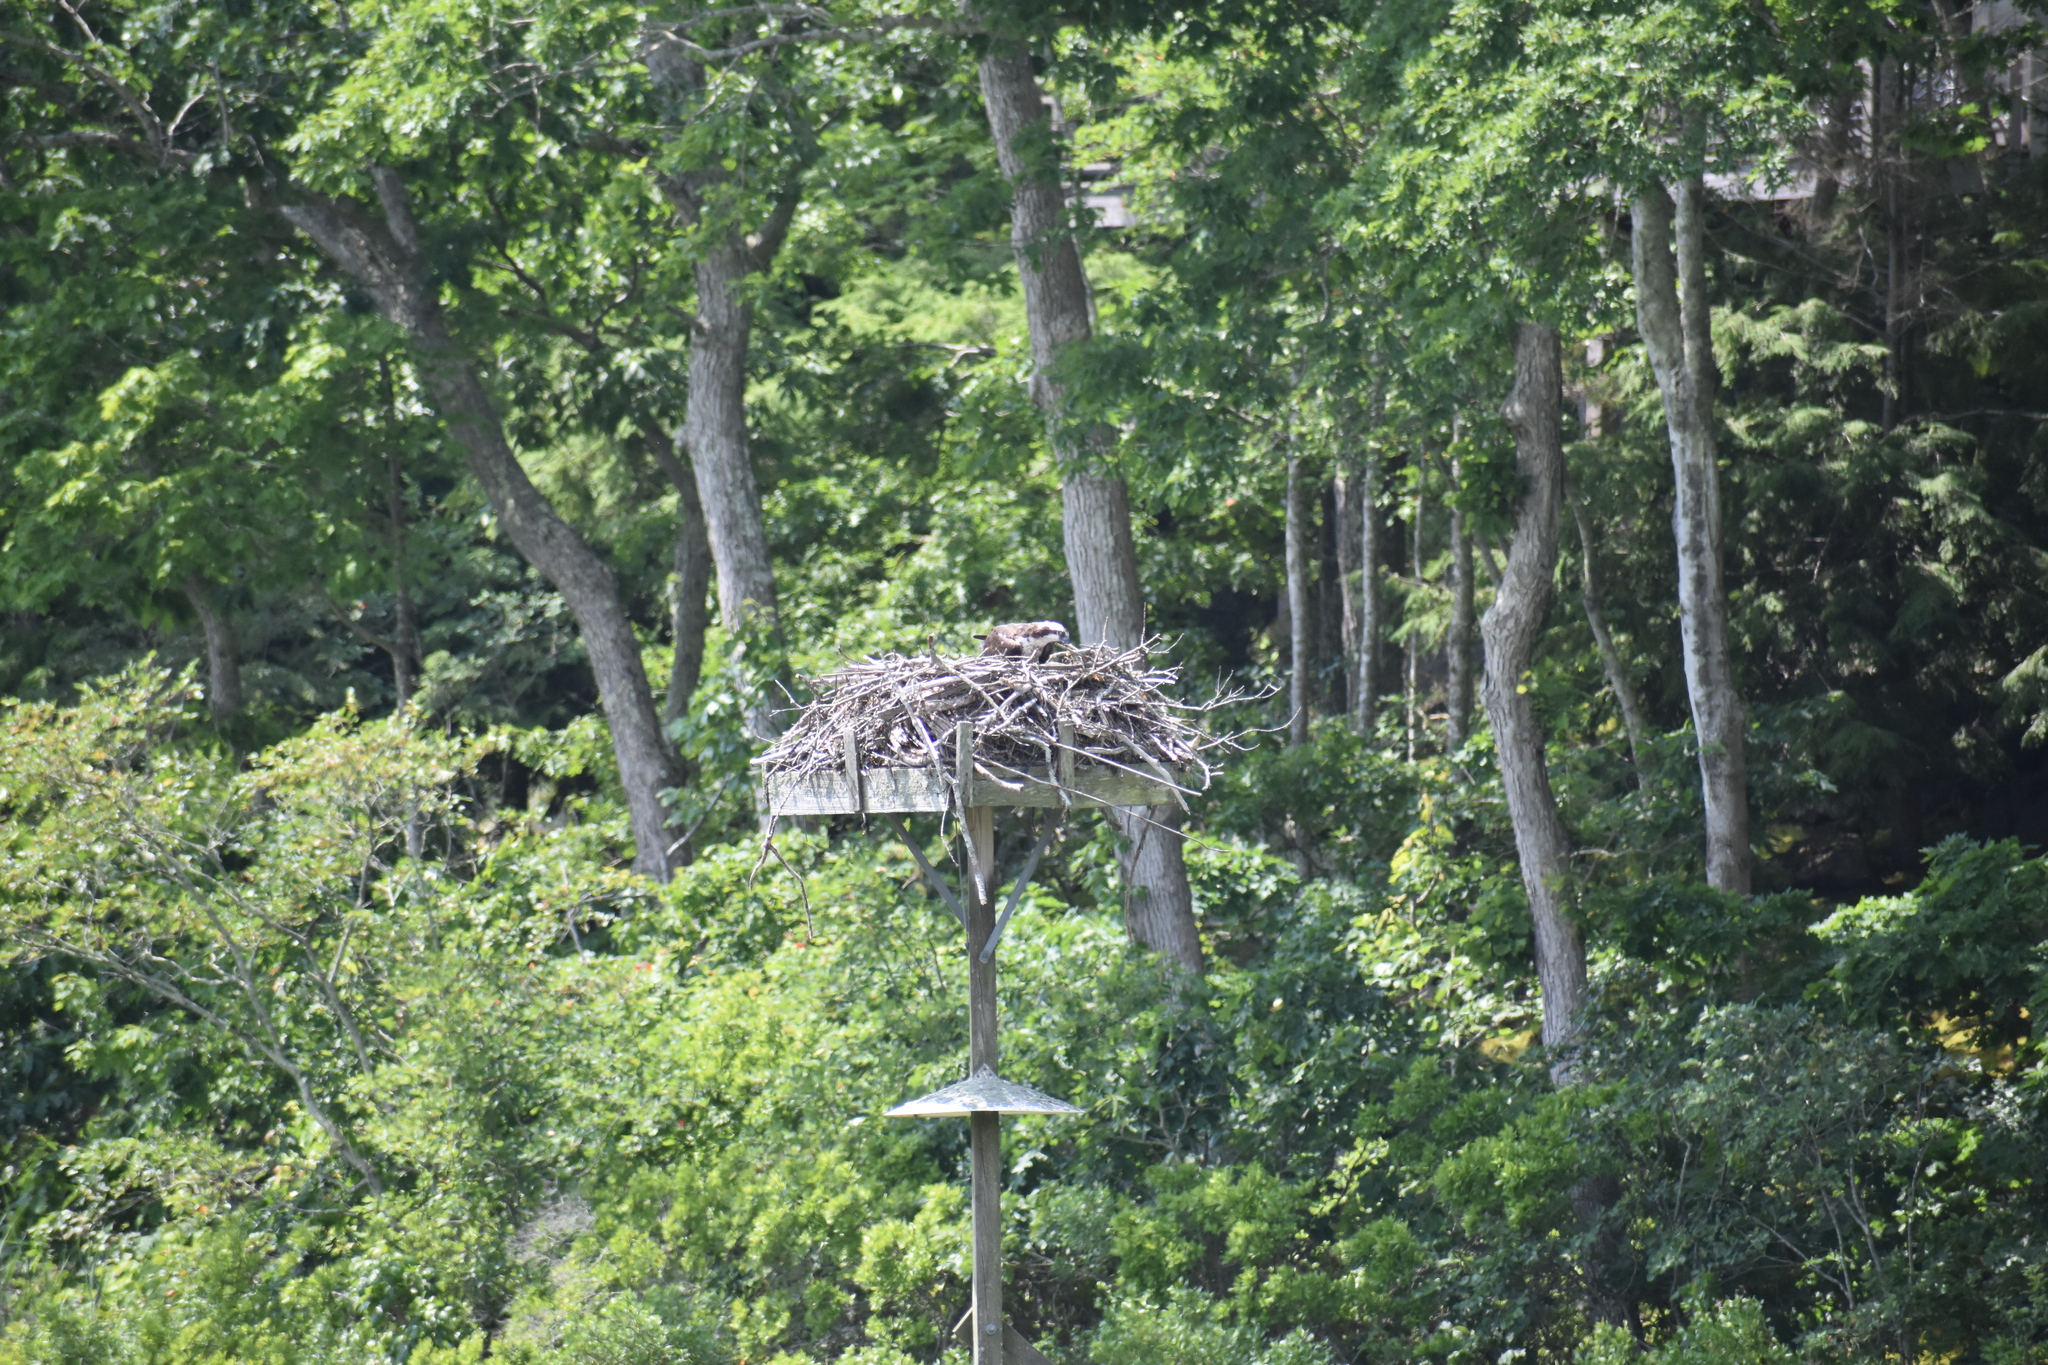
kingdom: Animalia
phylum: Chordata
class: Aves
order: Accipitriformes
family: Pandionidae
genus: Pandion
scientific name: Pandion haliaetus
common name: Osprey
